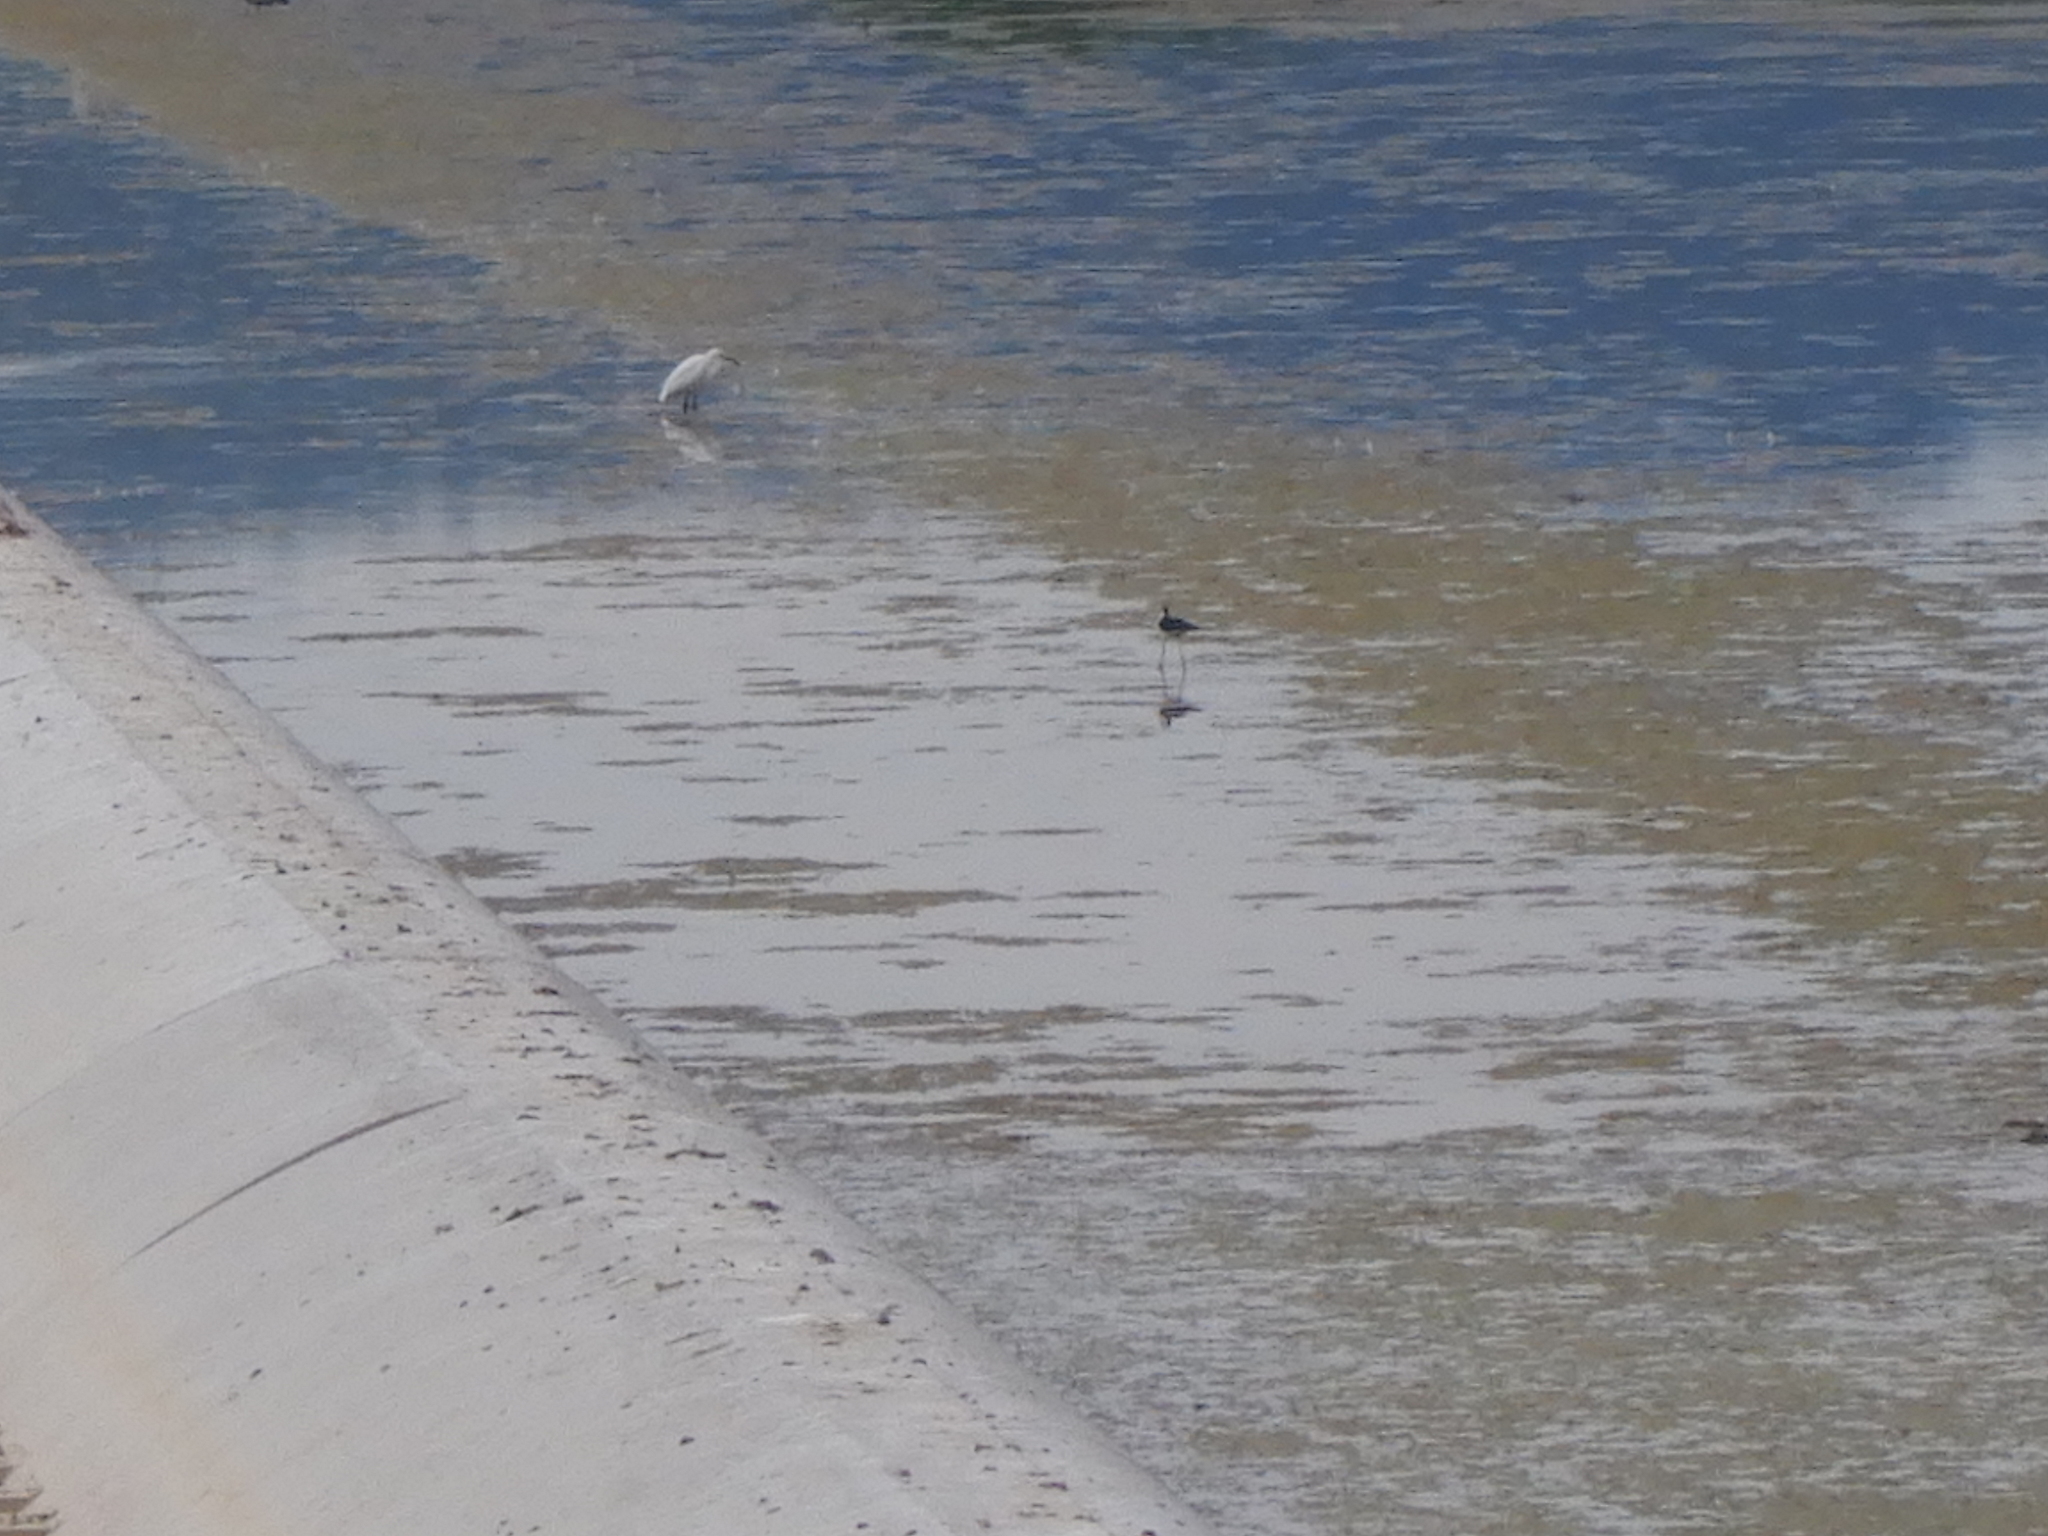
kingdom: Animalia
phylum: Chordata
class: Aves
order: Pelecaniformes
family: Ardeidae
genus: Egretta
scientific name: Egretta garzetta
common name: Little egret
